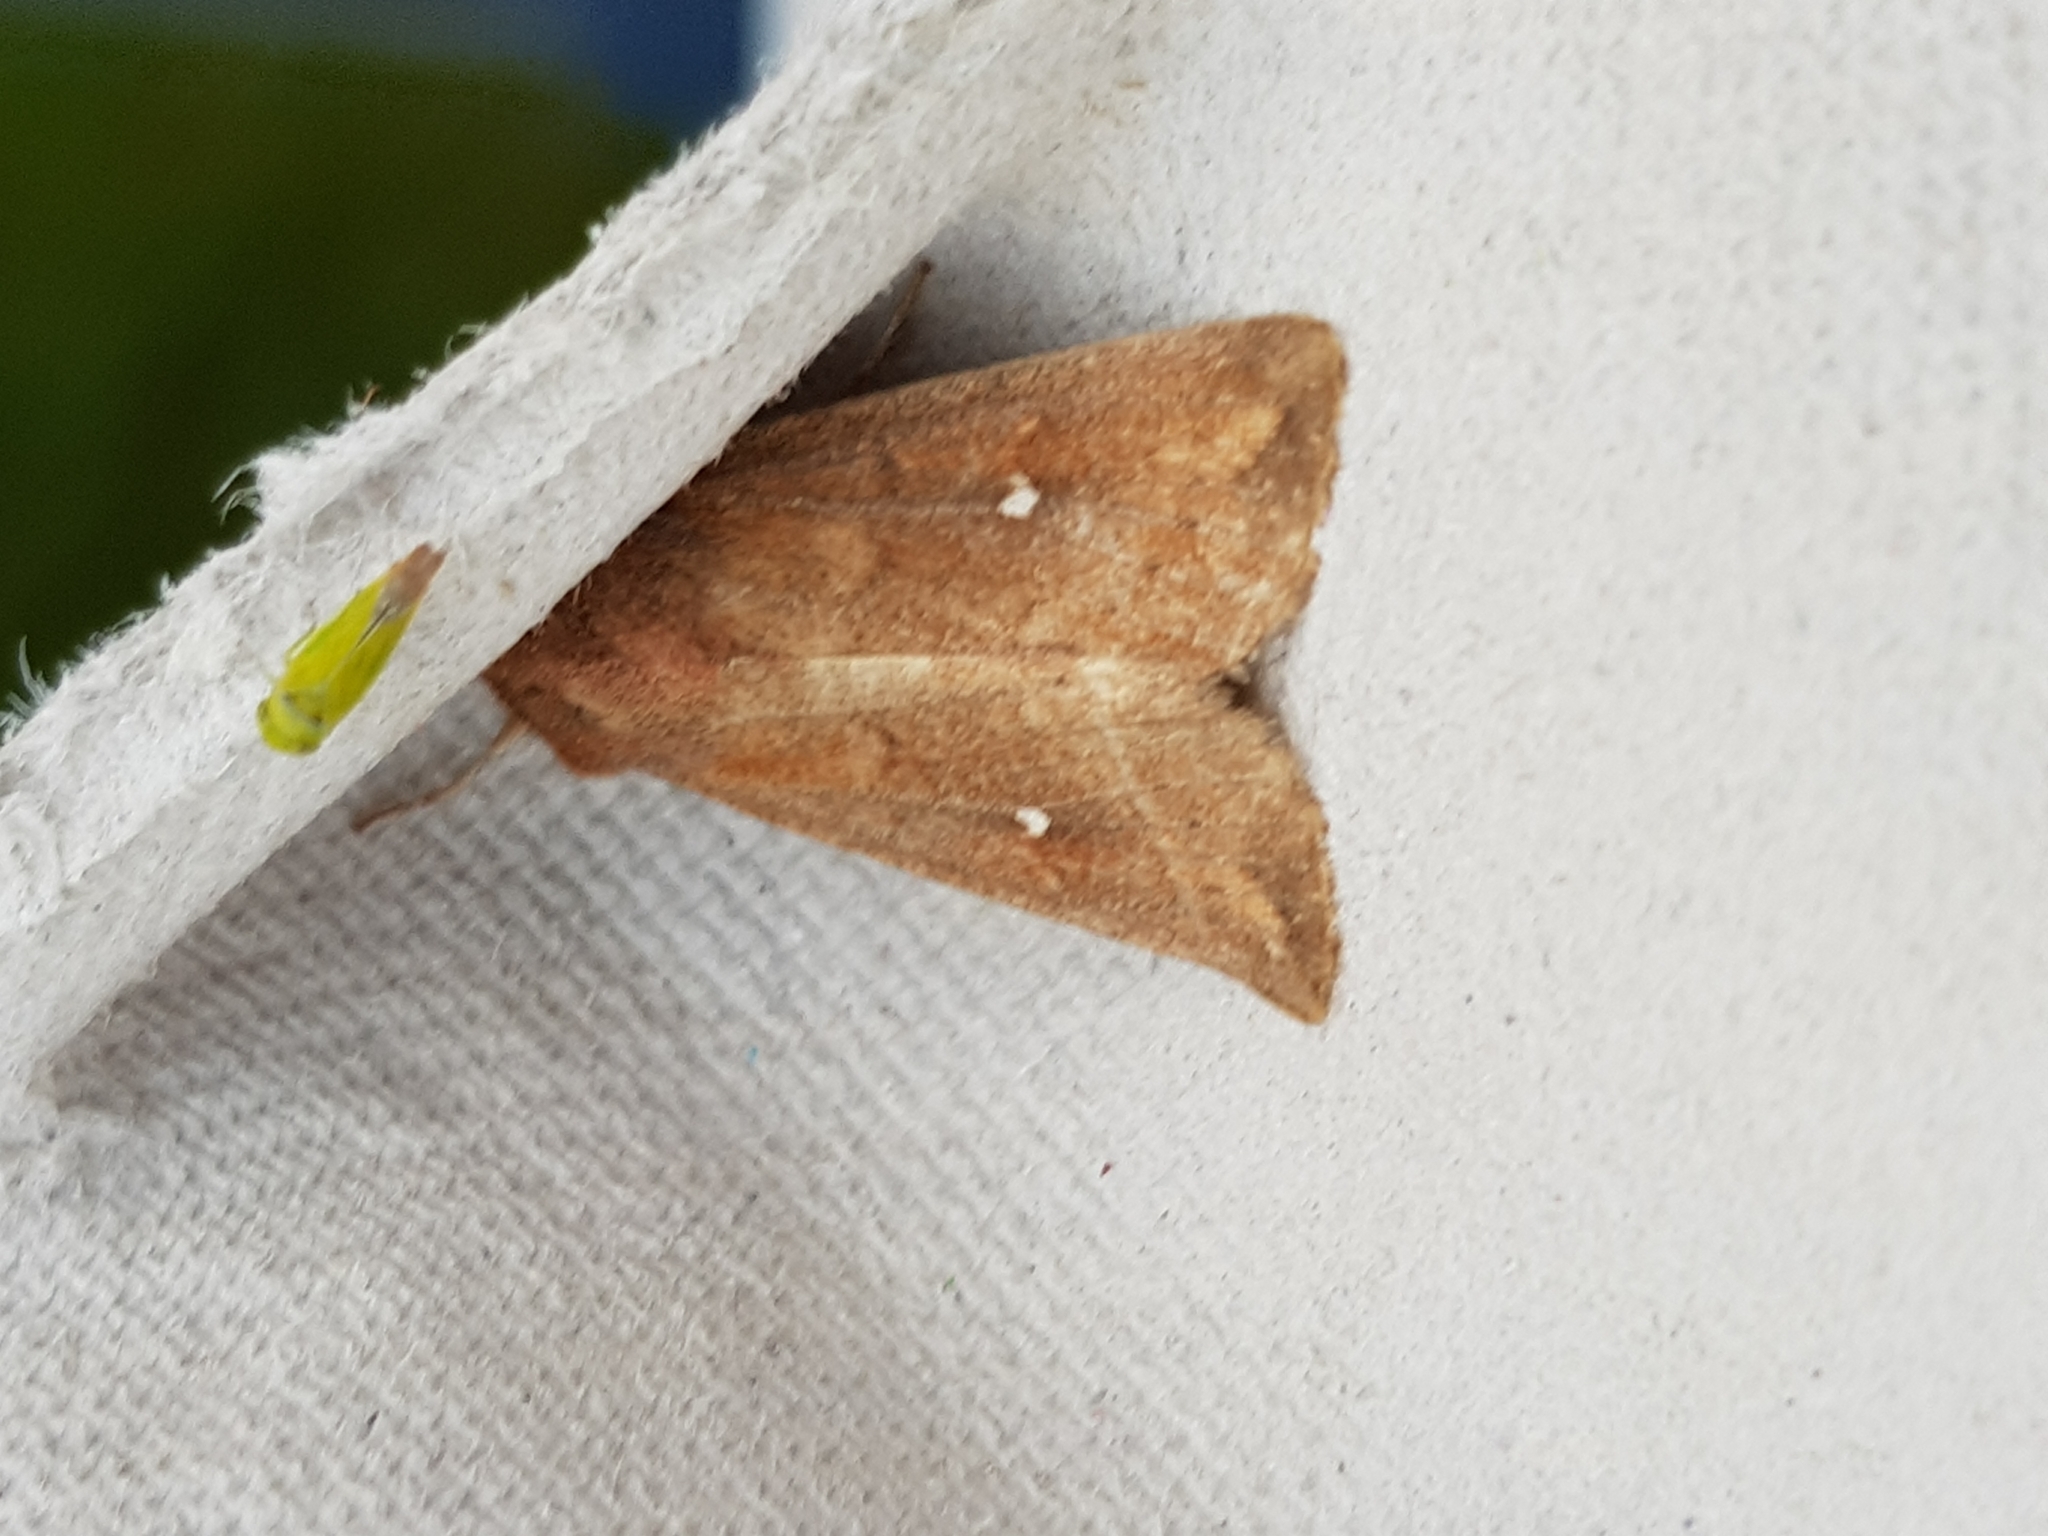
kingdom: Animalia
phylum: Arthropoda
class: Insecta
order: Lepidoptera
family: Noctuidae
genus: Mythimna
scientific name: Mythimna albipuncta
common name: White-point
